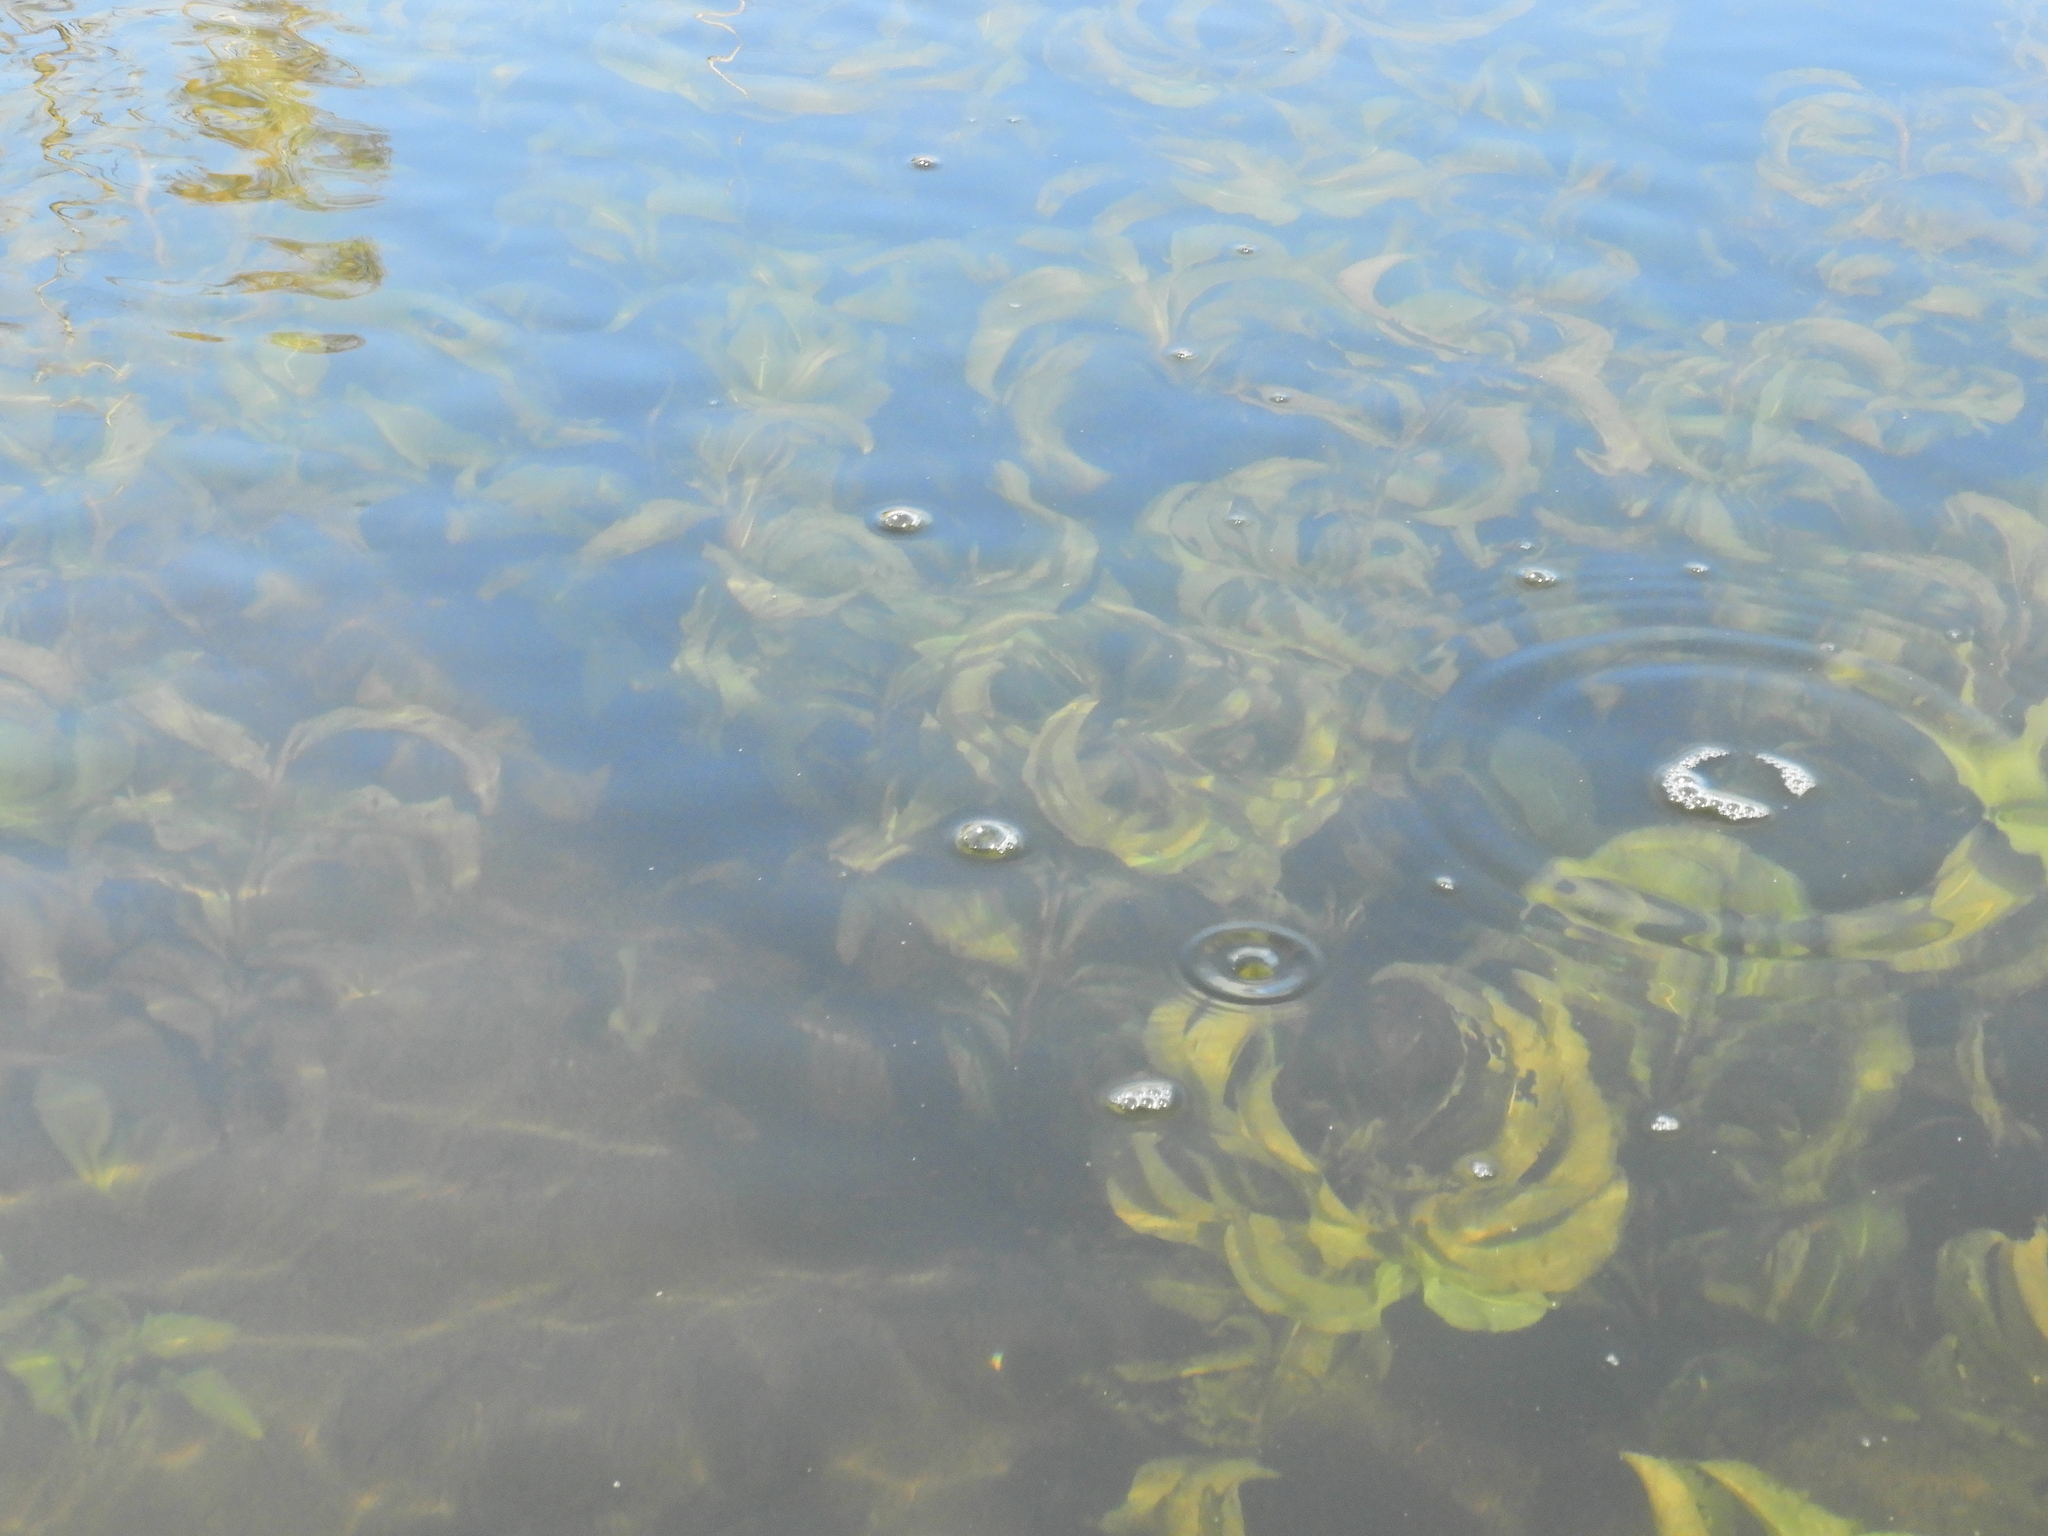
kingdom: Plantae
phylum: Tracheophyta
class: Liliopsida
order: Alismatales
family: Potamogetonaceae
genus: Potamogeton
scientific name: Potamogeton amplifolius
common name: Broad-leaved pondweed
